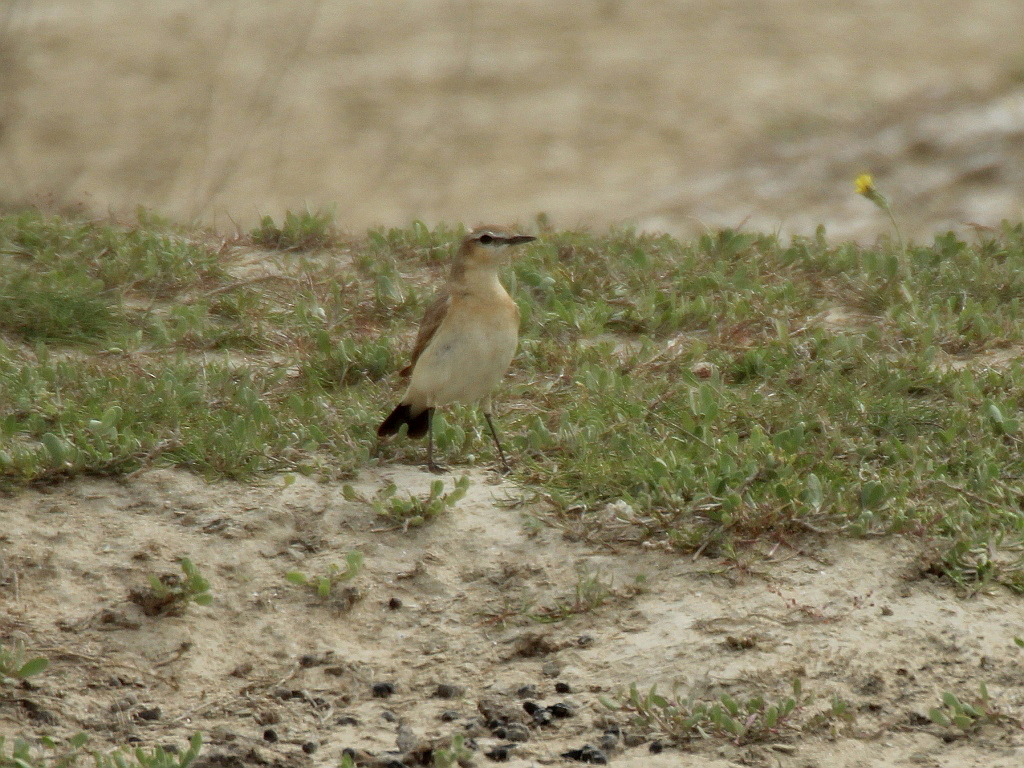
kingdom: Animalia
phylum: Chordata
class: Aves
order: Passeriformes
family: Muscicapidae
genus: Oenanthe
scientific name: Oenanthe isabellina
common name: Isabelline wheatear
